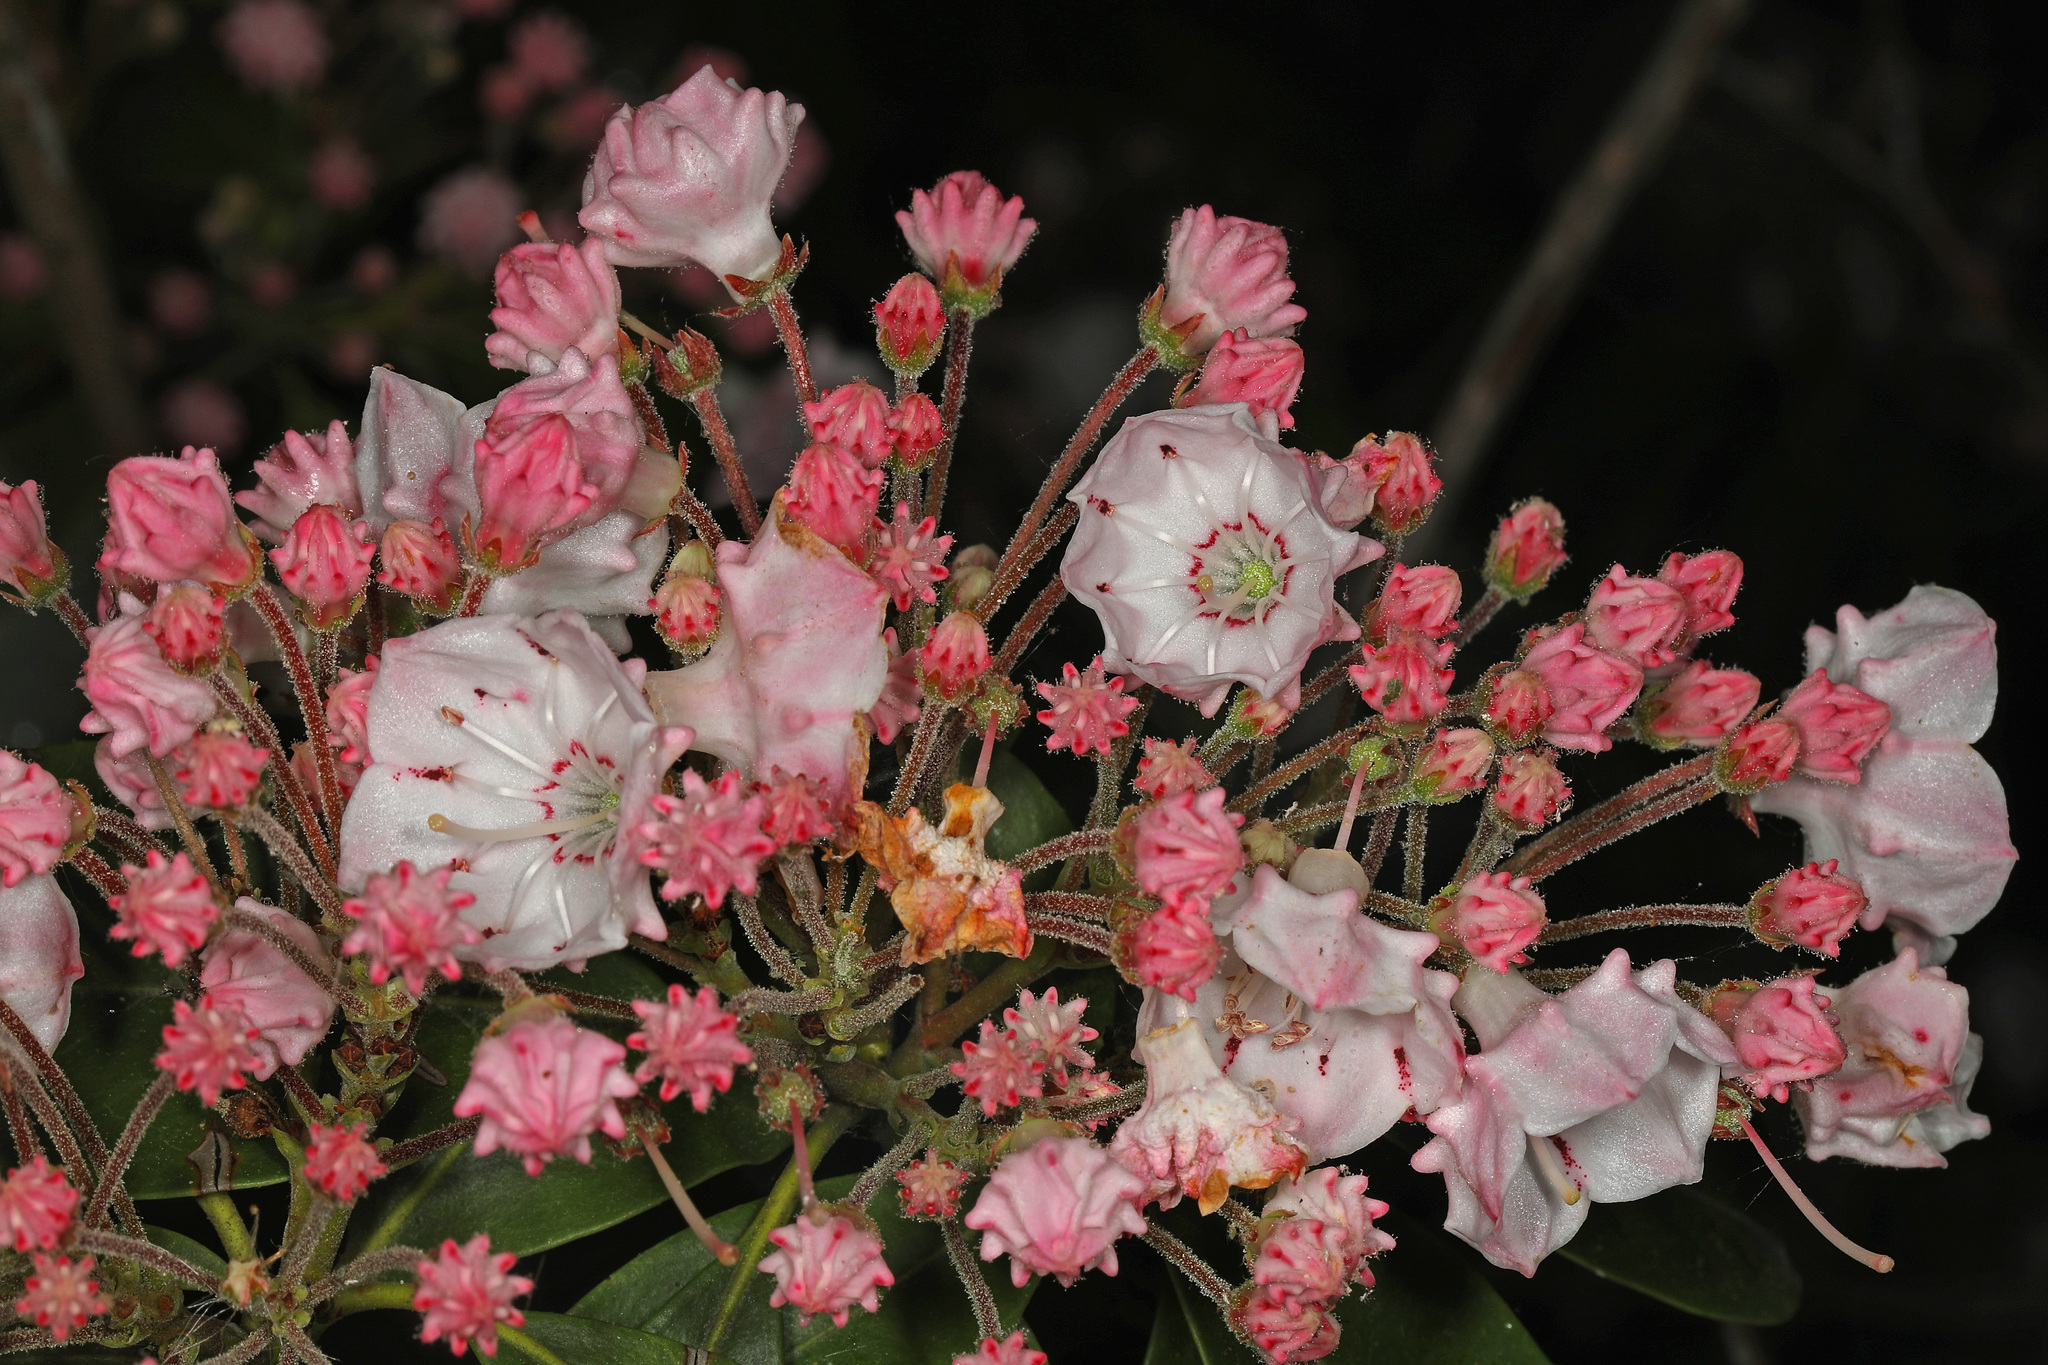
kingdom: Plantae
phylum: Tracheophyta
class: Magnoliopsida
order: Ericales
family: Ericaceae
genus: Kalmia
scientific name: Kalmia latifolia
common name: Mountain-laurel
